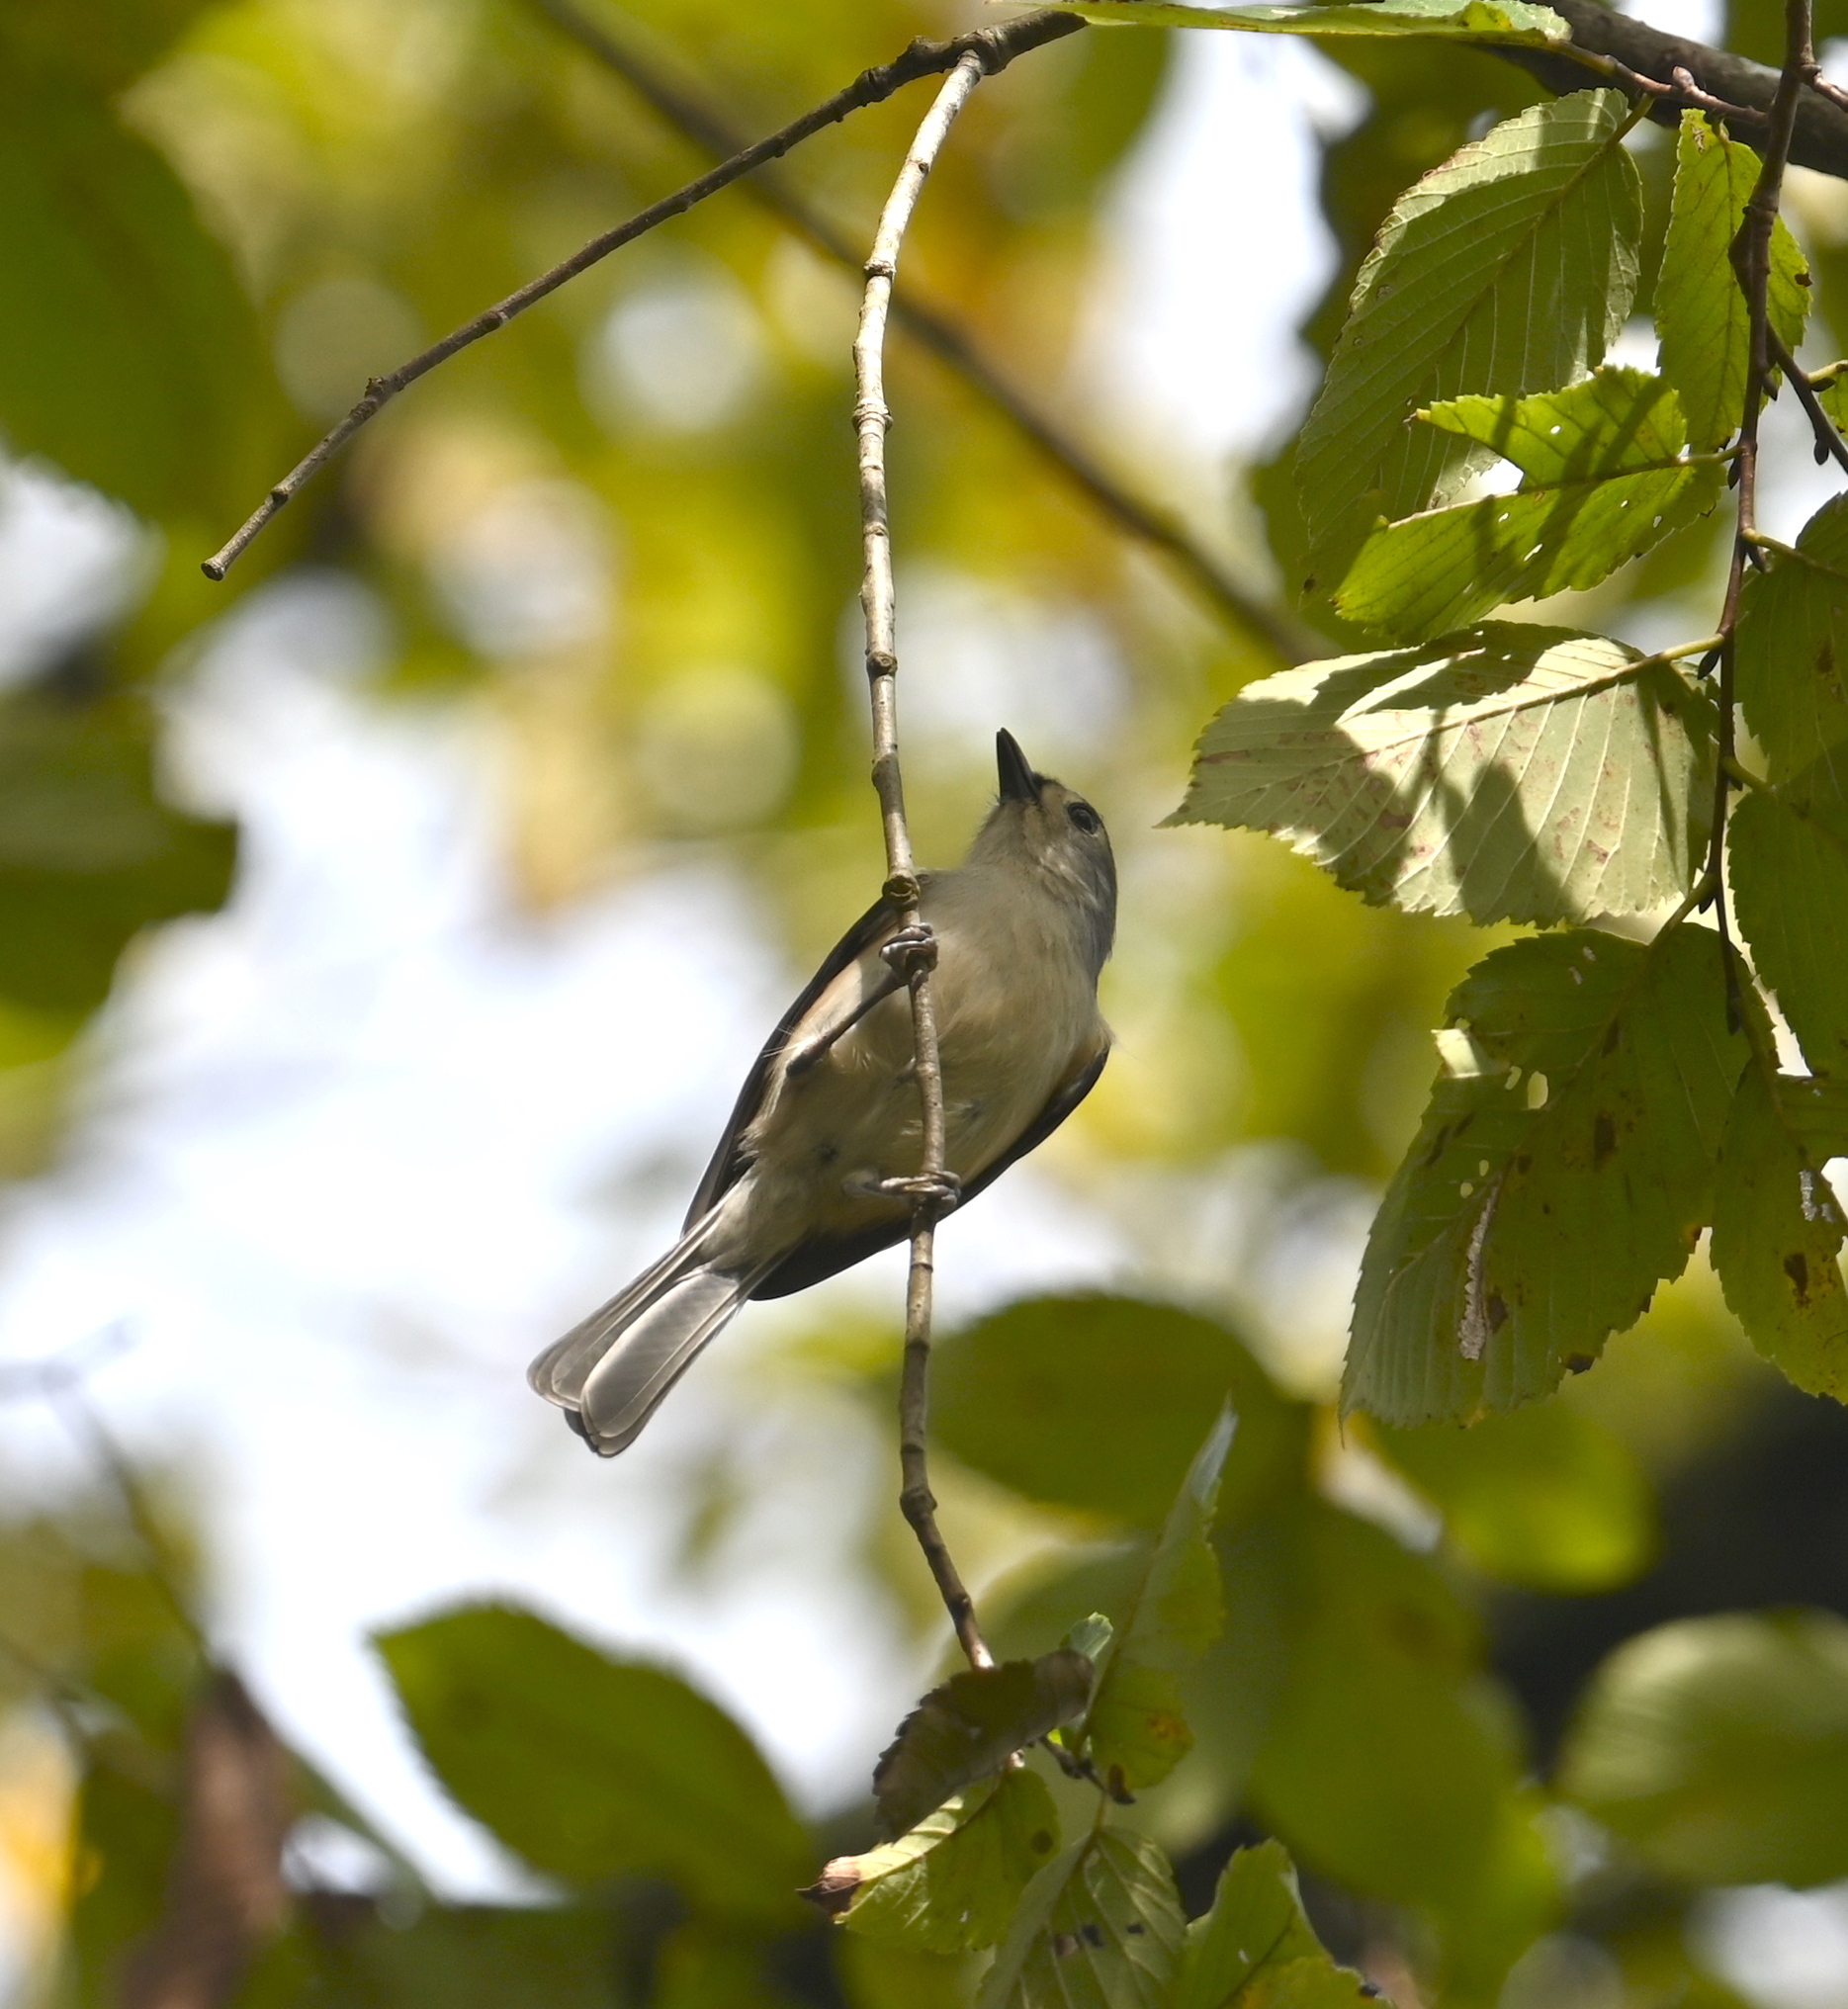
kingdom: Animalia
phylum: Chordata
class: Aves
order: Passeriformes
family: Paridae
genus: Baeolophus
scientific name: Baeolophus bicolor
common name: Tufted titmouse
